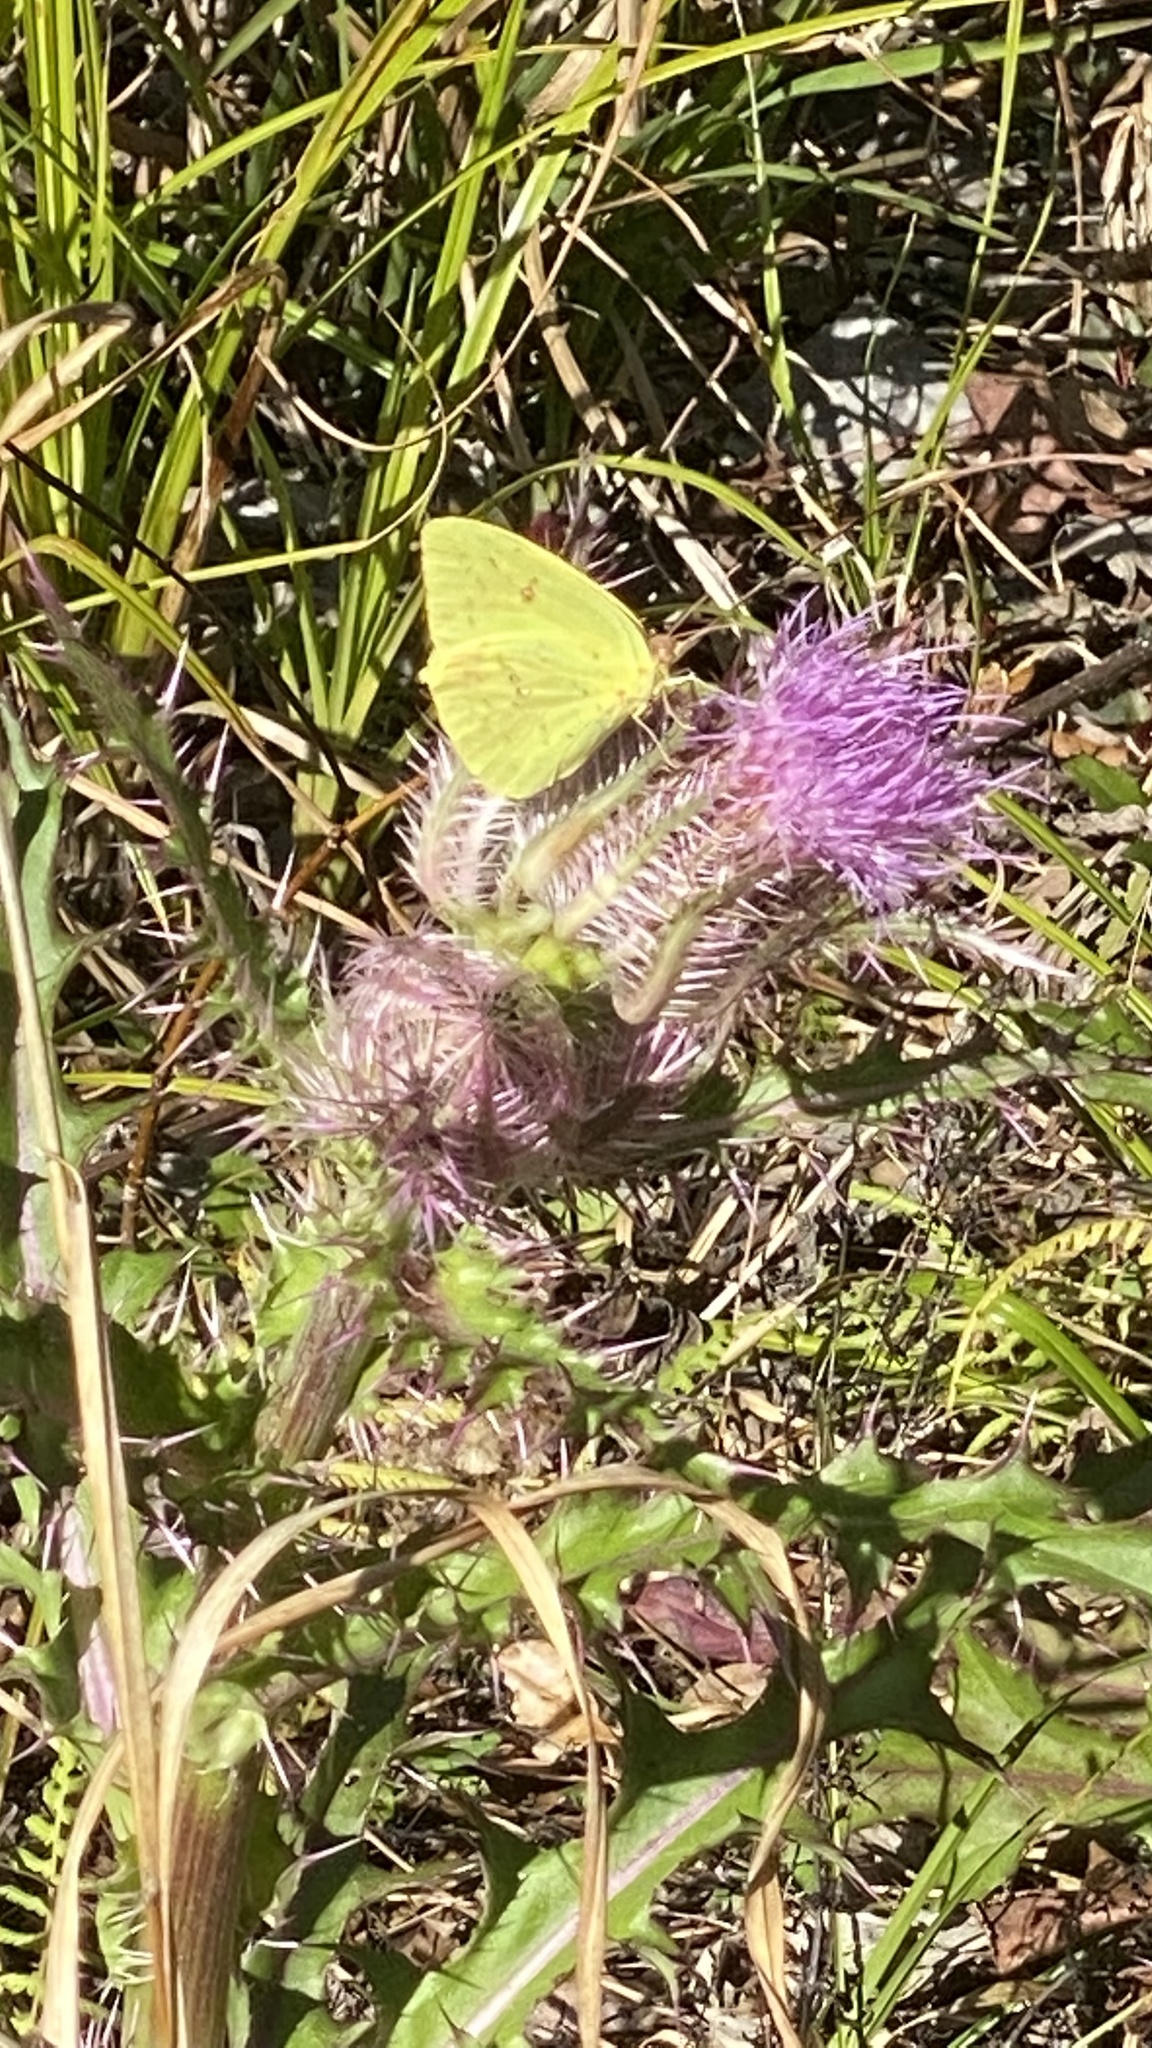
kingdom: Animalia
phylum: Arthropoda
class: Insecta
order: Lepidoptera
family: Pieridae
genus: Phoebis
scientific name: Phoebis sennae
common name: Cloudless sulphur
